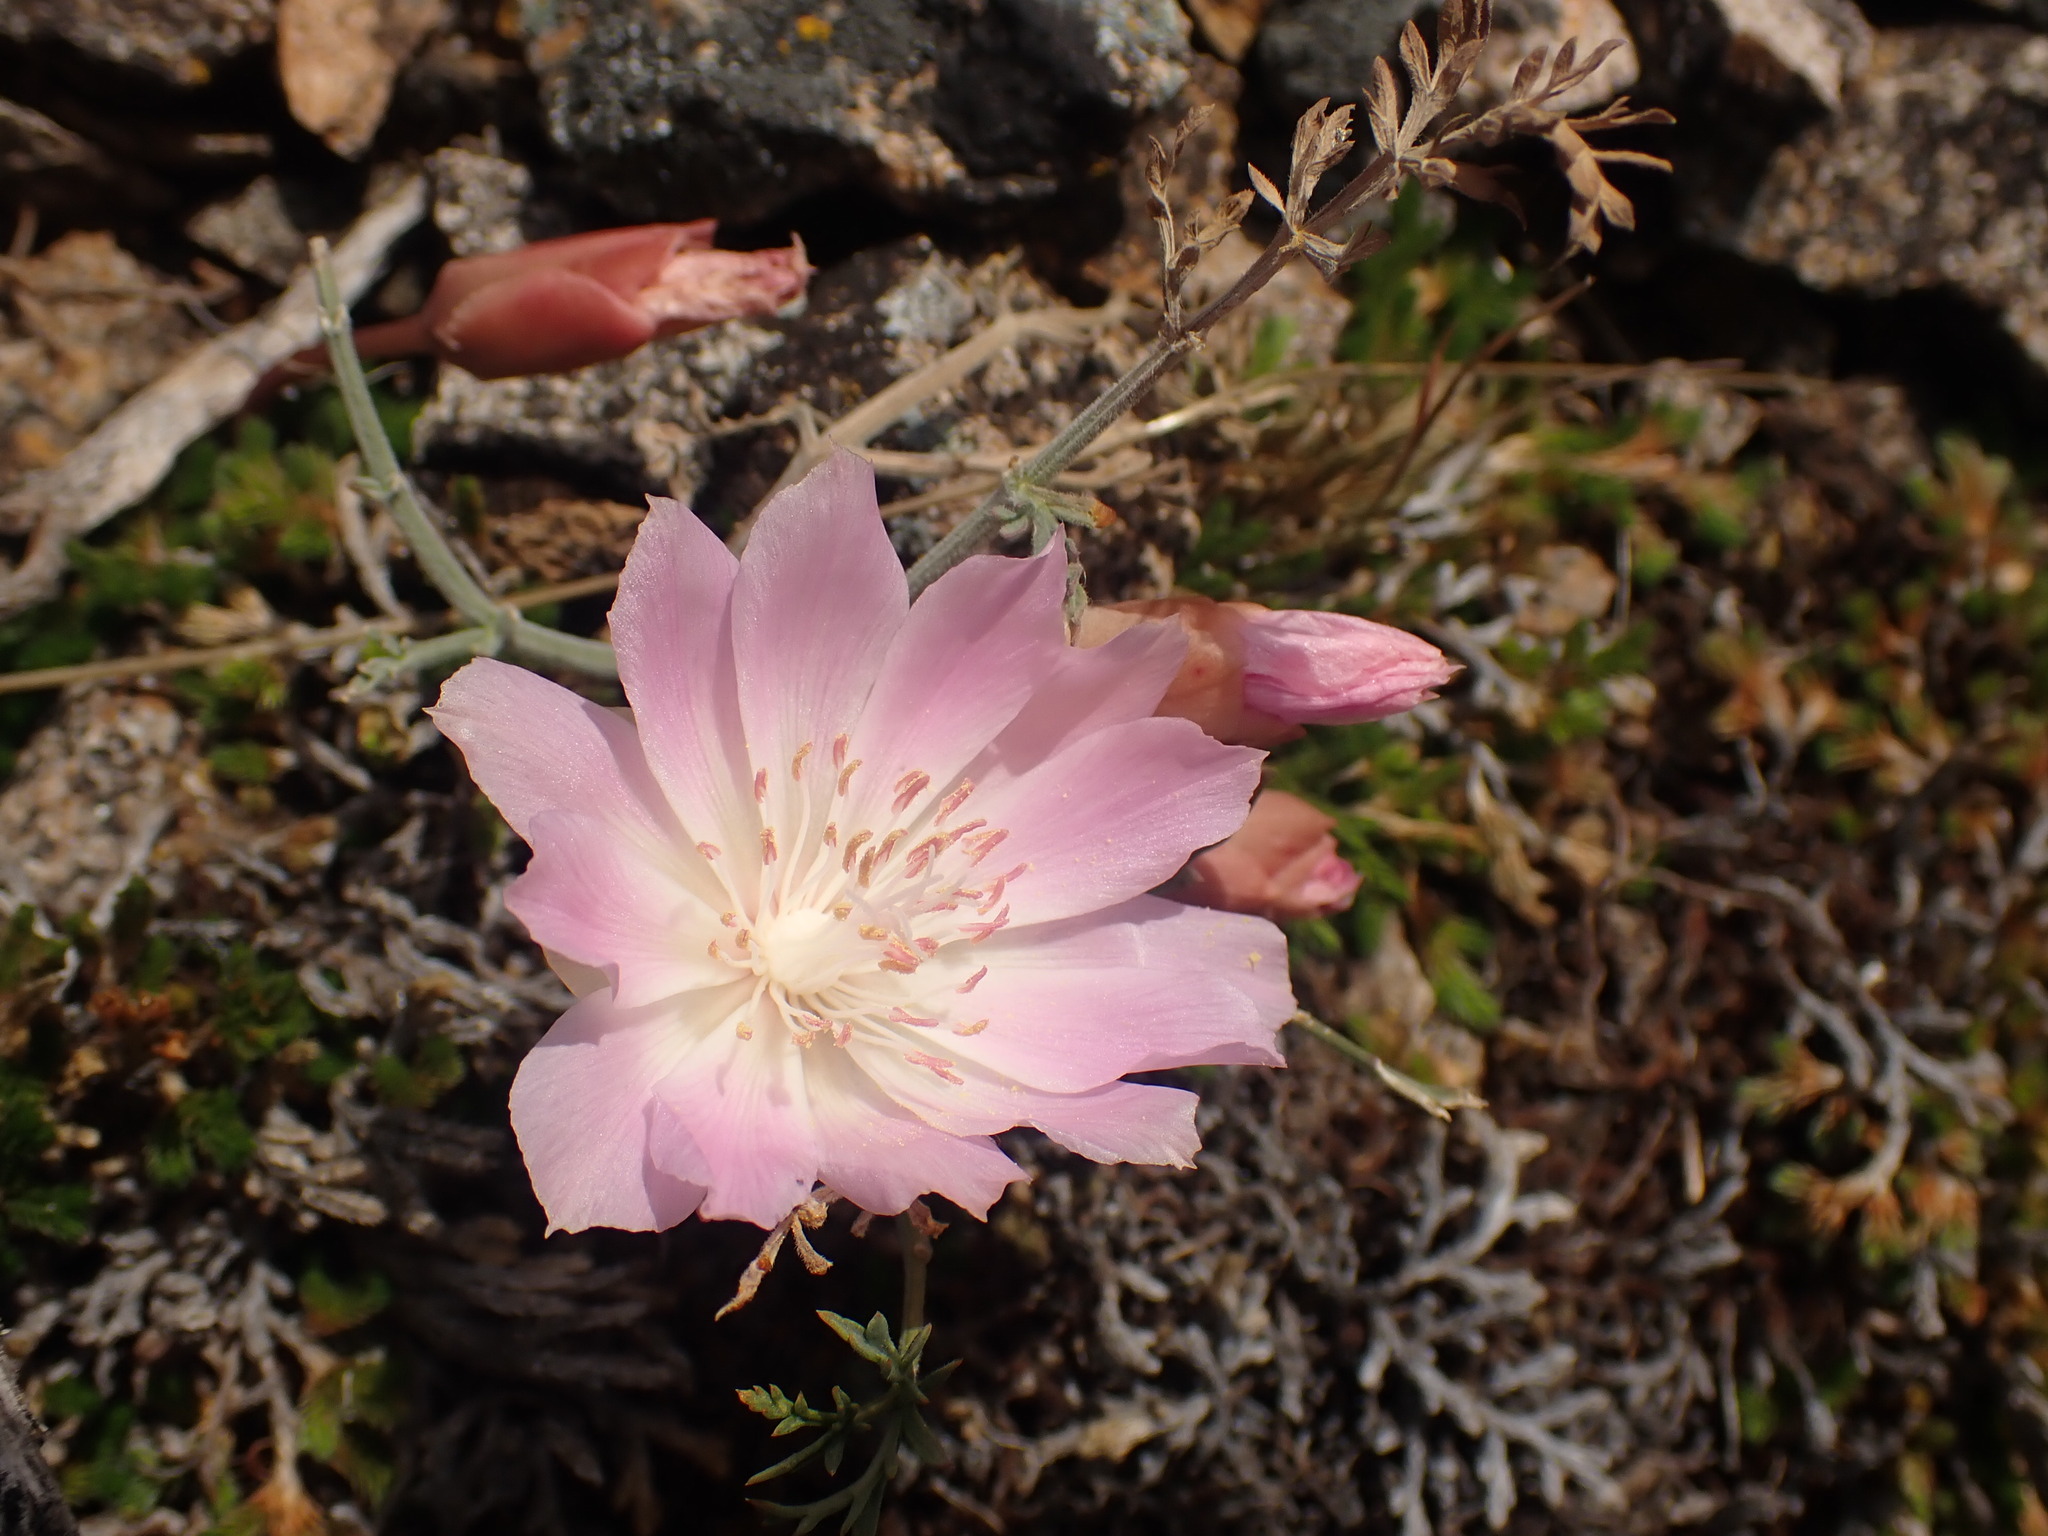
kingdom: Plantae
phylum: Tracheophyta
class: Magnoliopsida
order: Caryophyllales
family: Montiaceae
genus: Lewisia
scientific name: Lewisia rediviva
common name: Bitter-root
